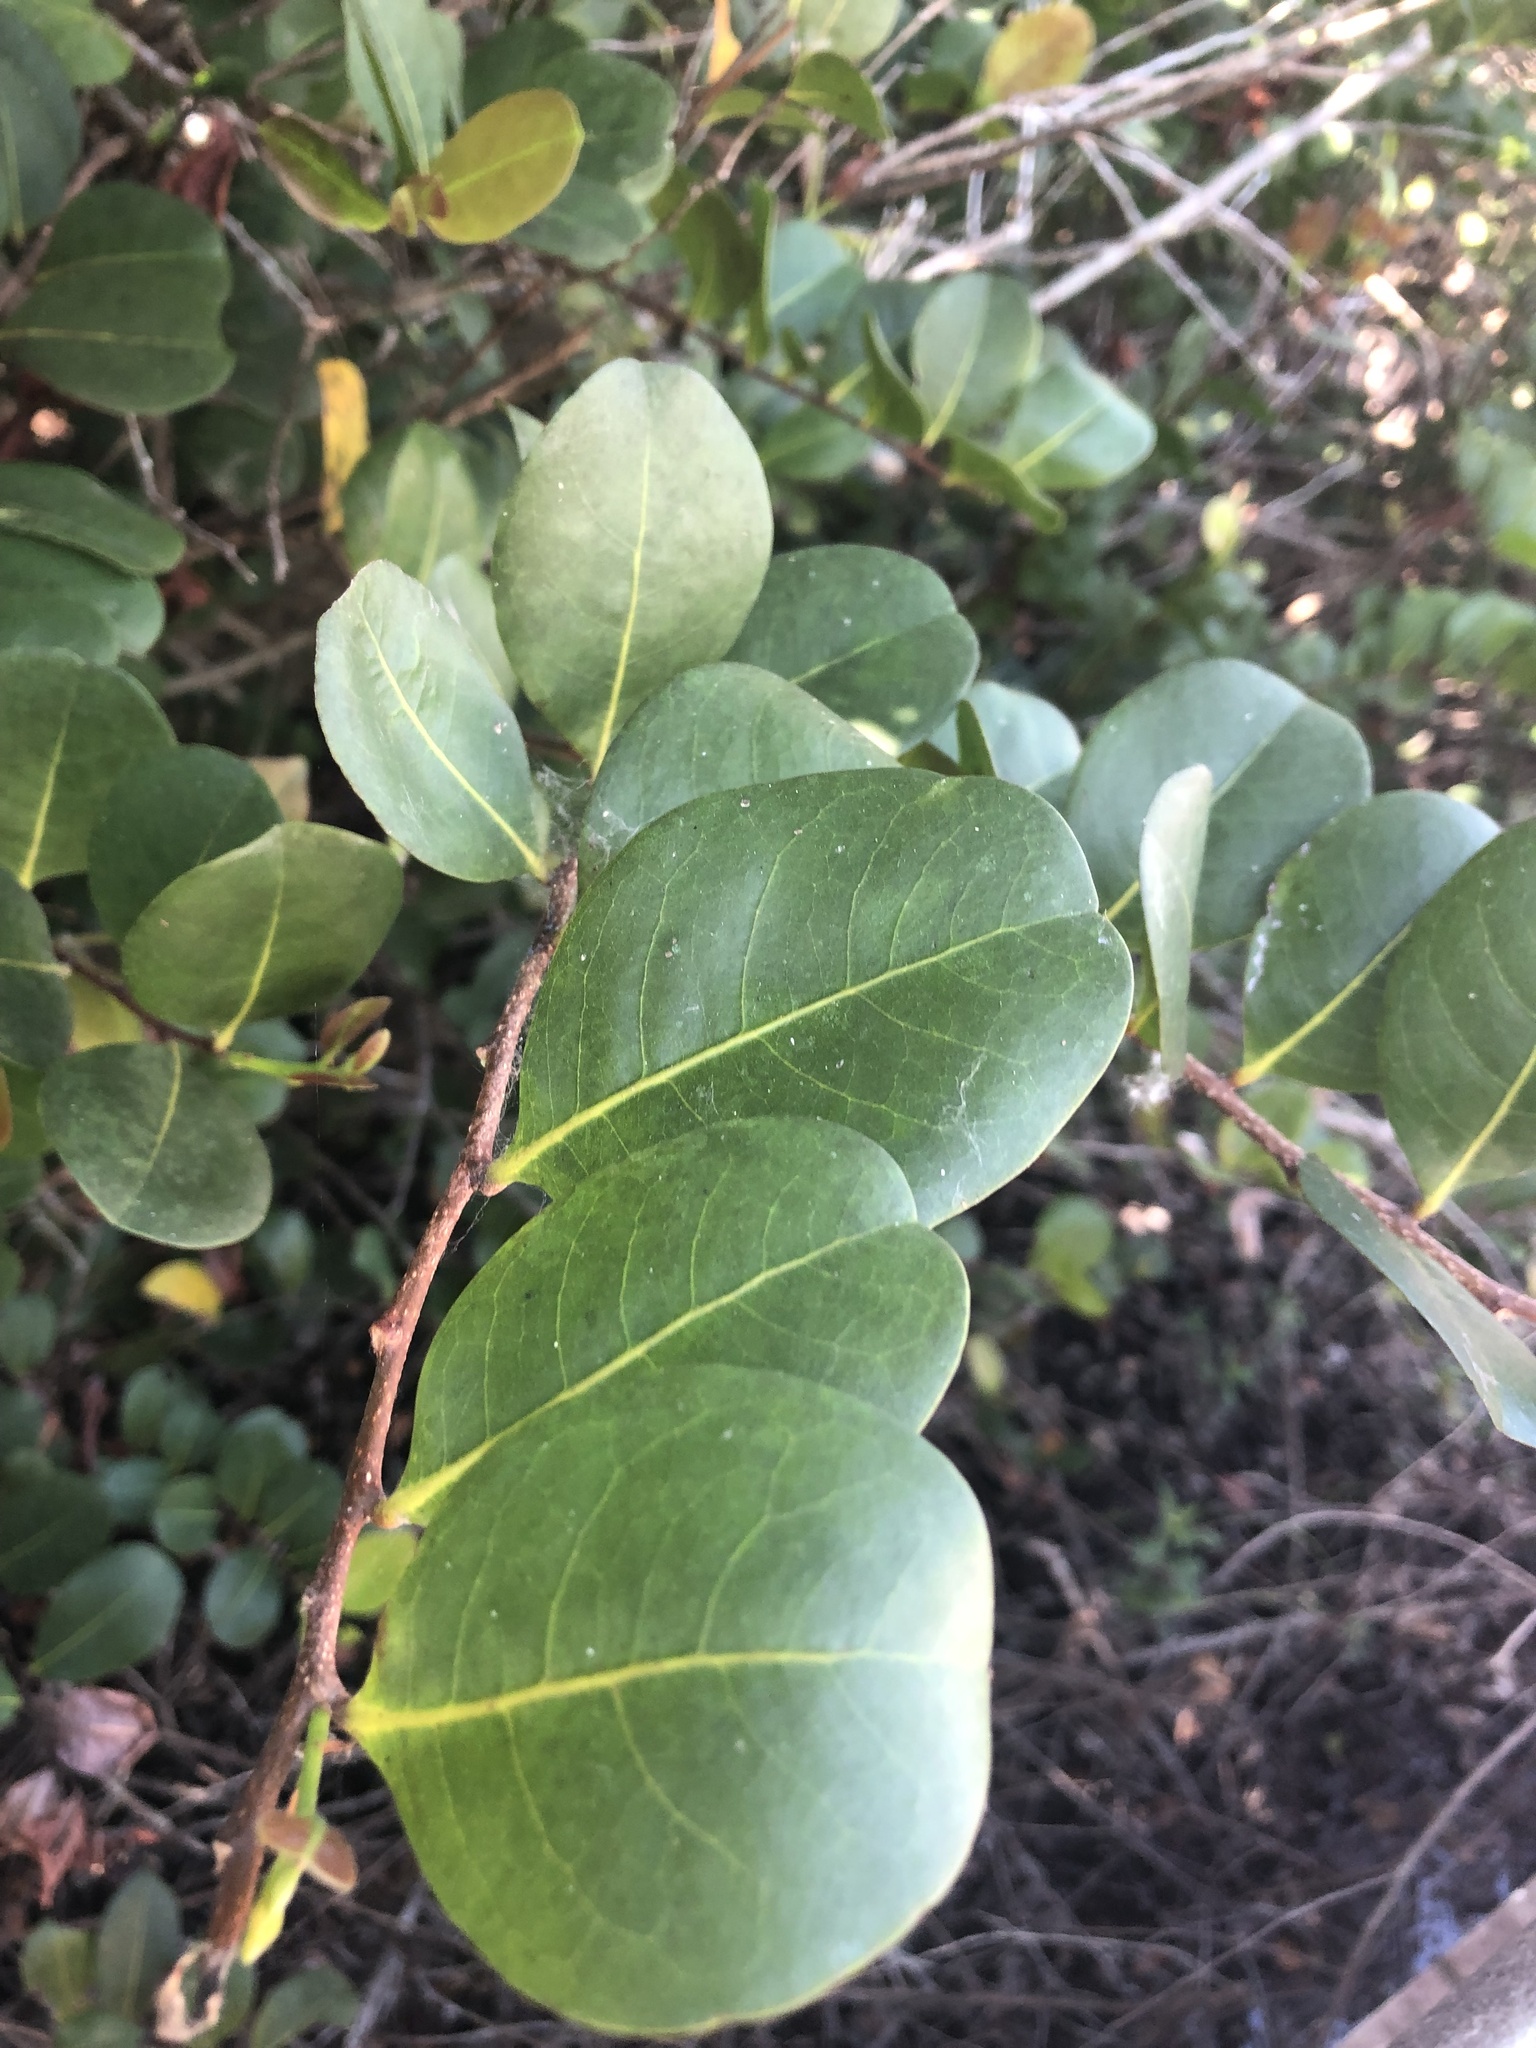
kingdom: Plantae
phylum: Tracheophyta
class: Magnoliopsida
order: Malpighiales
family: Chrysobalanaceae
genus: Chrysobalanus
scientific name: Chrysobalanus icaco
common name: Coco plum
